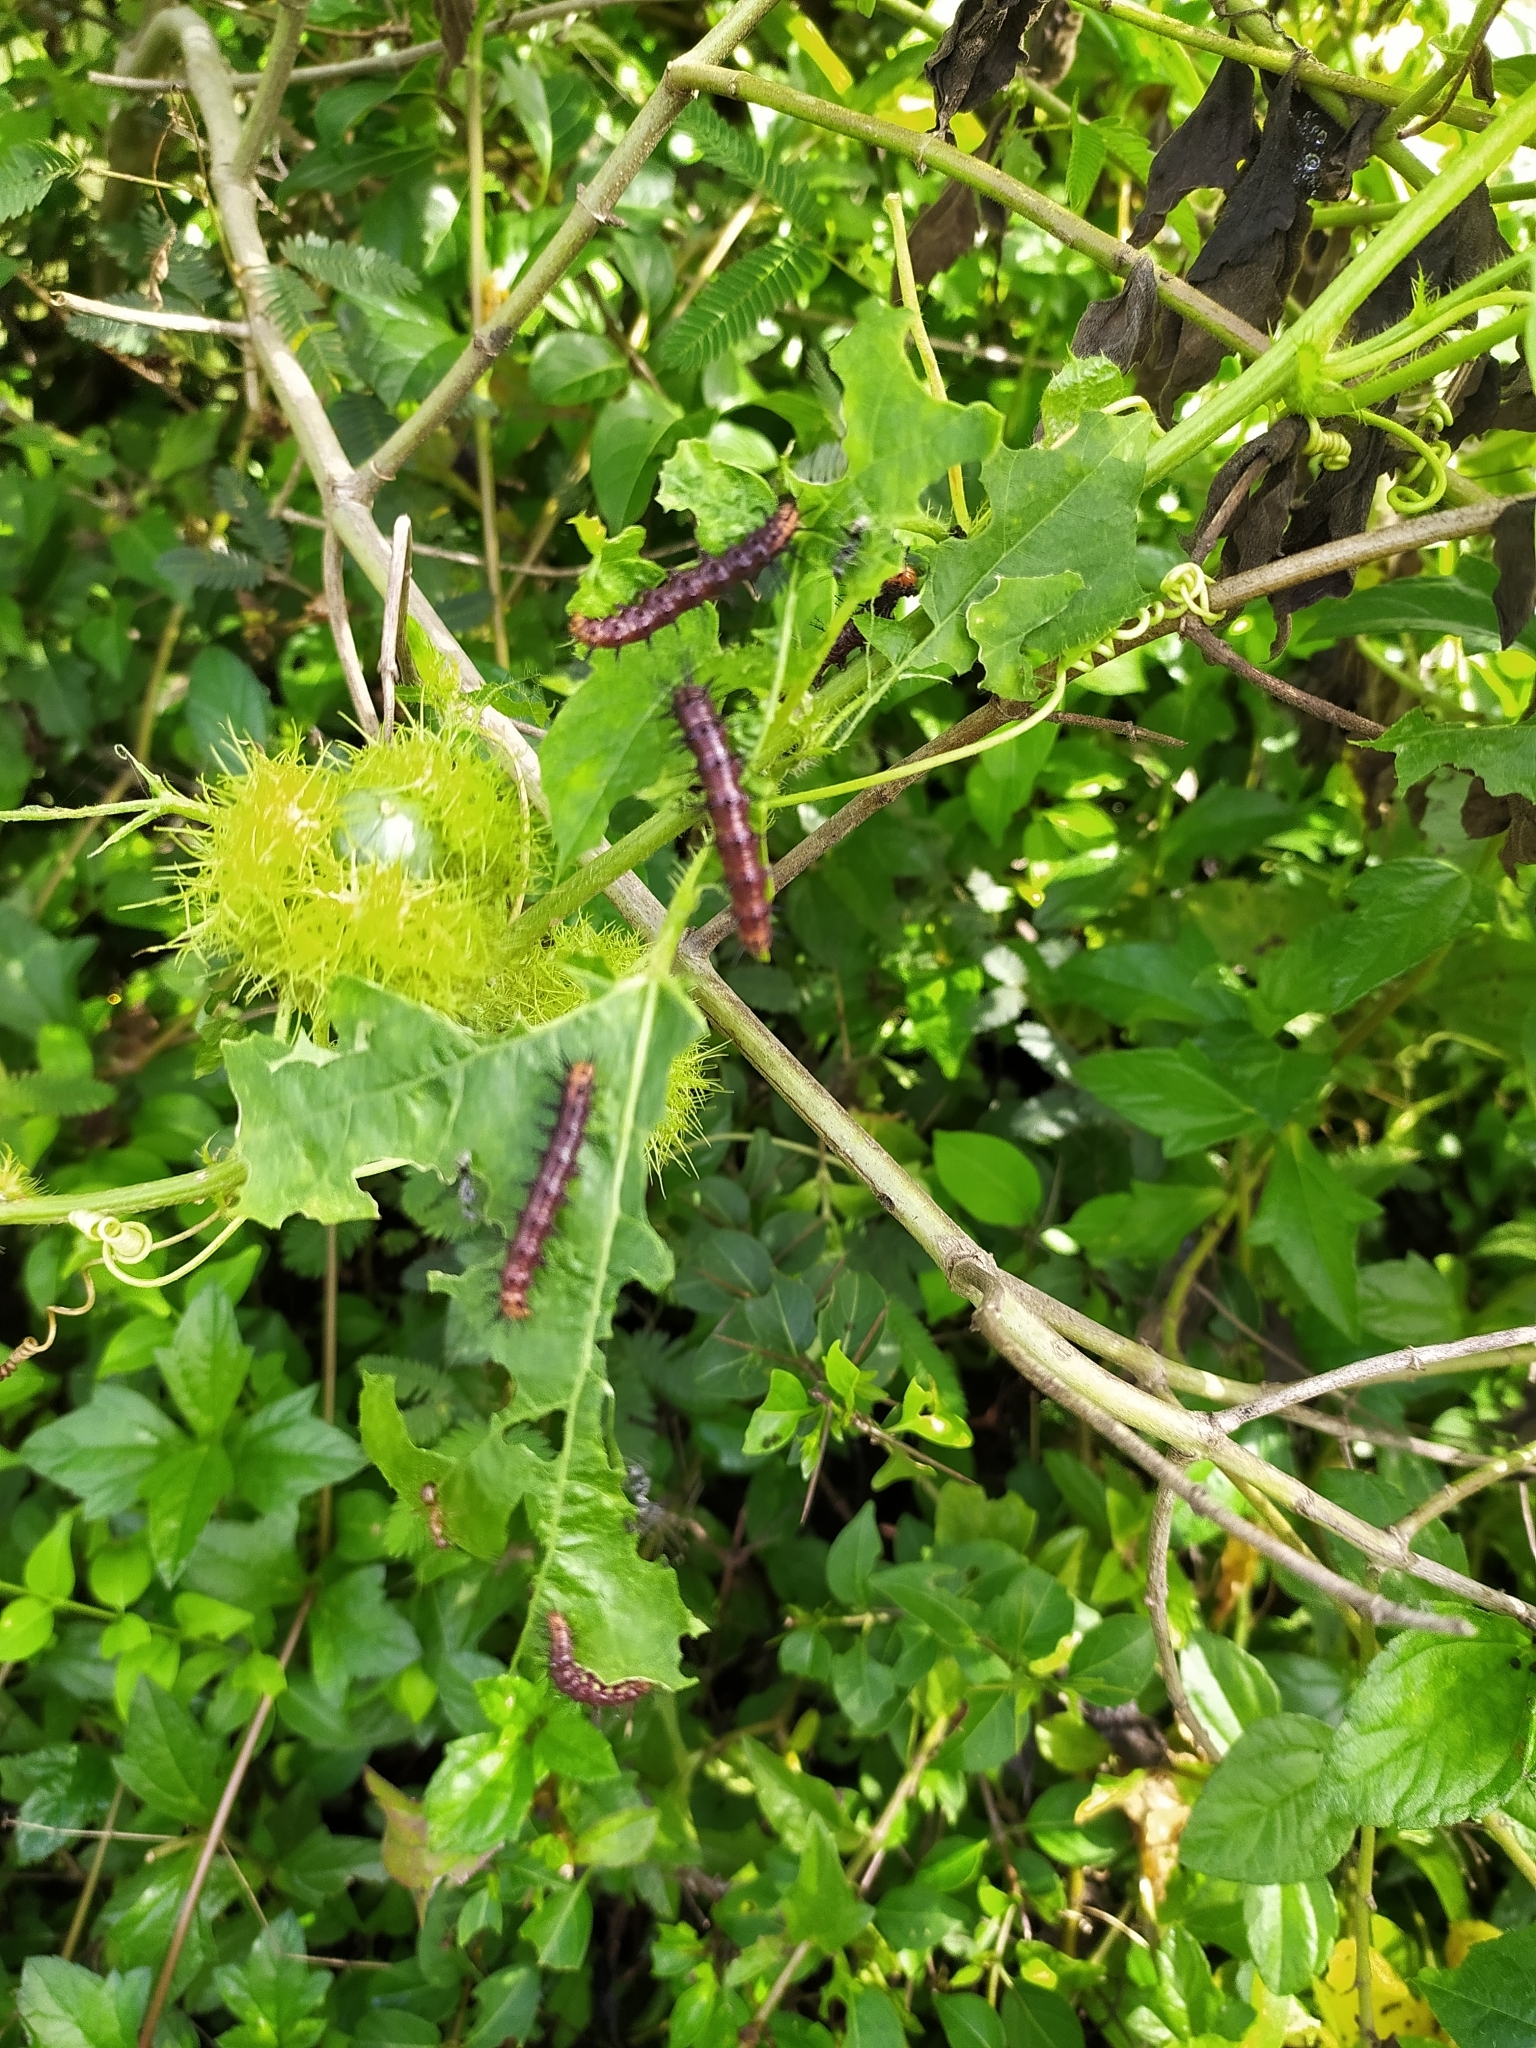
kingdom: Animalia
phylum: Arthropoda
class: Insecta
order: Lepidoptera
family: Nymphalidae
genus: Acraea
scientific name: Acraea terpsicore
